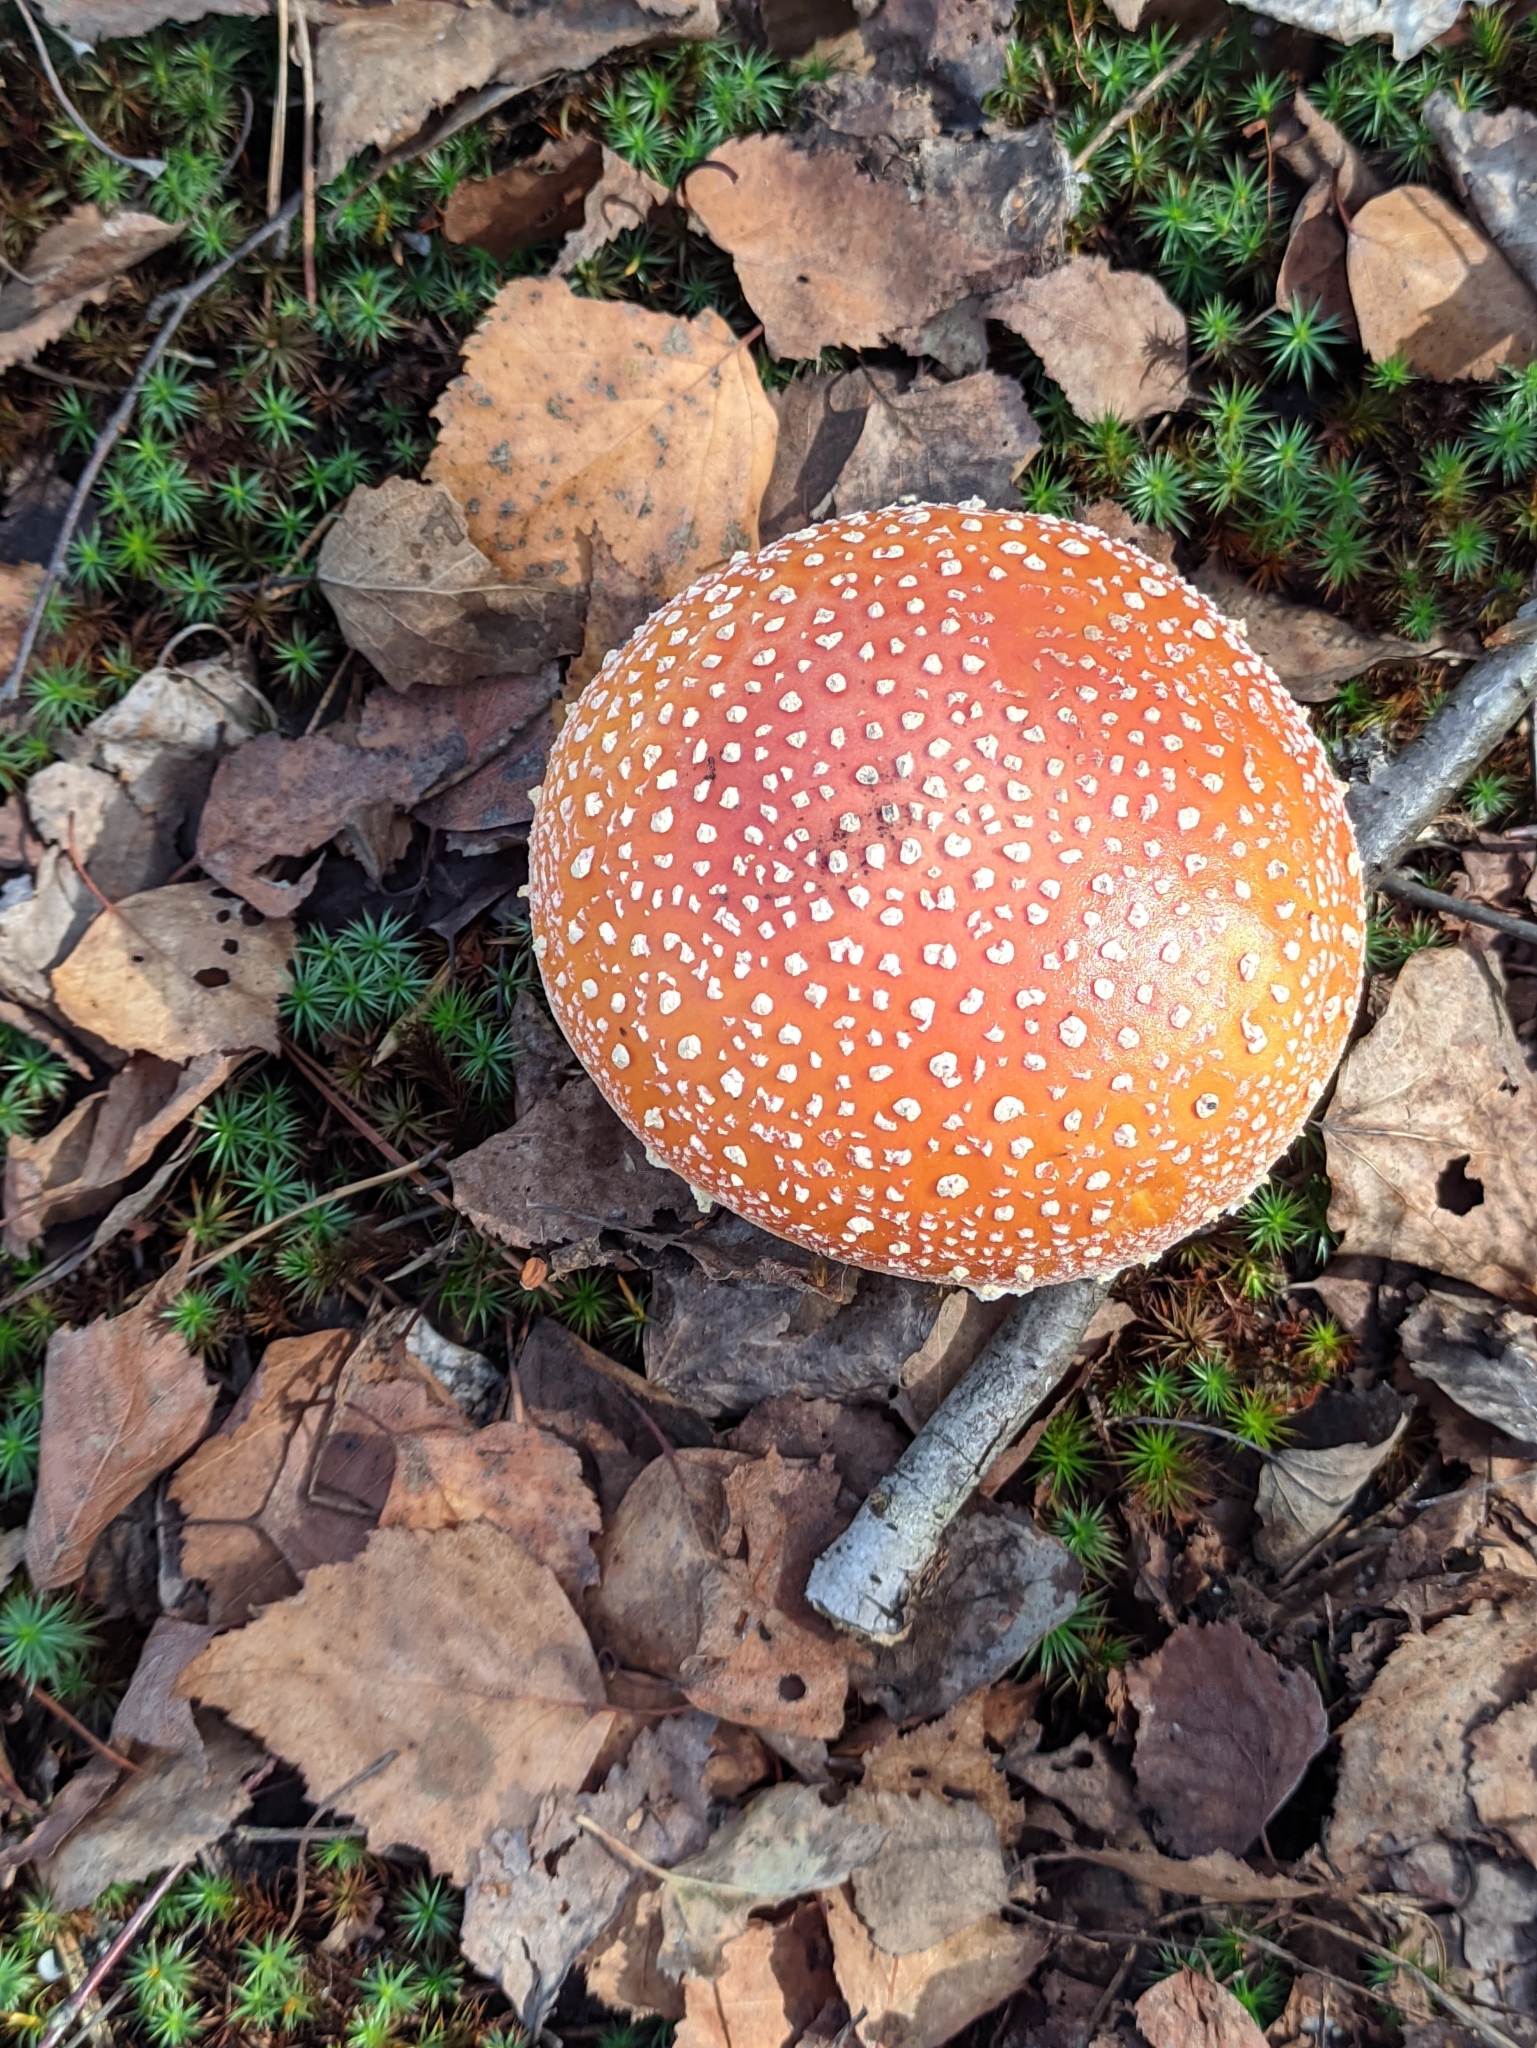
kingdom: Fungi
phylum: Basidiomycota
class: Agaricomycetes
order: Agaricales
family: Amanitaceae
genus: Amanita
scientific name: Amanita muscaria
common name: Fly agaric
